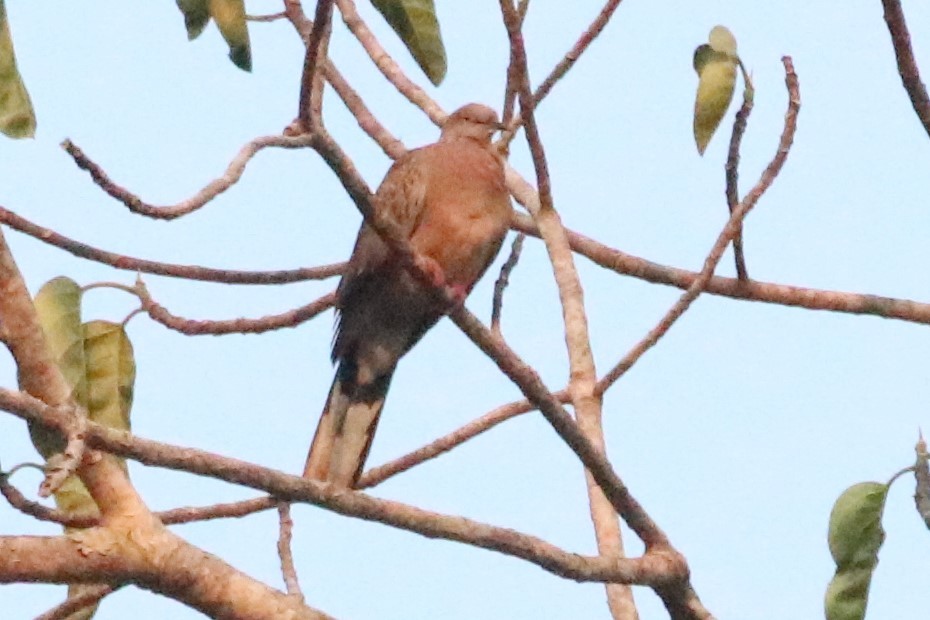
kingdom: Animalia
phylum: Chordata
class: Aves
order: Columbiformes
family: Columbidae
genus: Spilopelia
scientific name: Spilopelia chinensis
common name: Spotted dove
